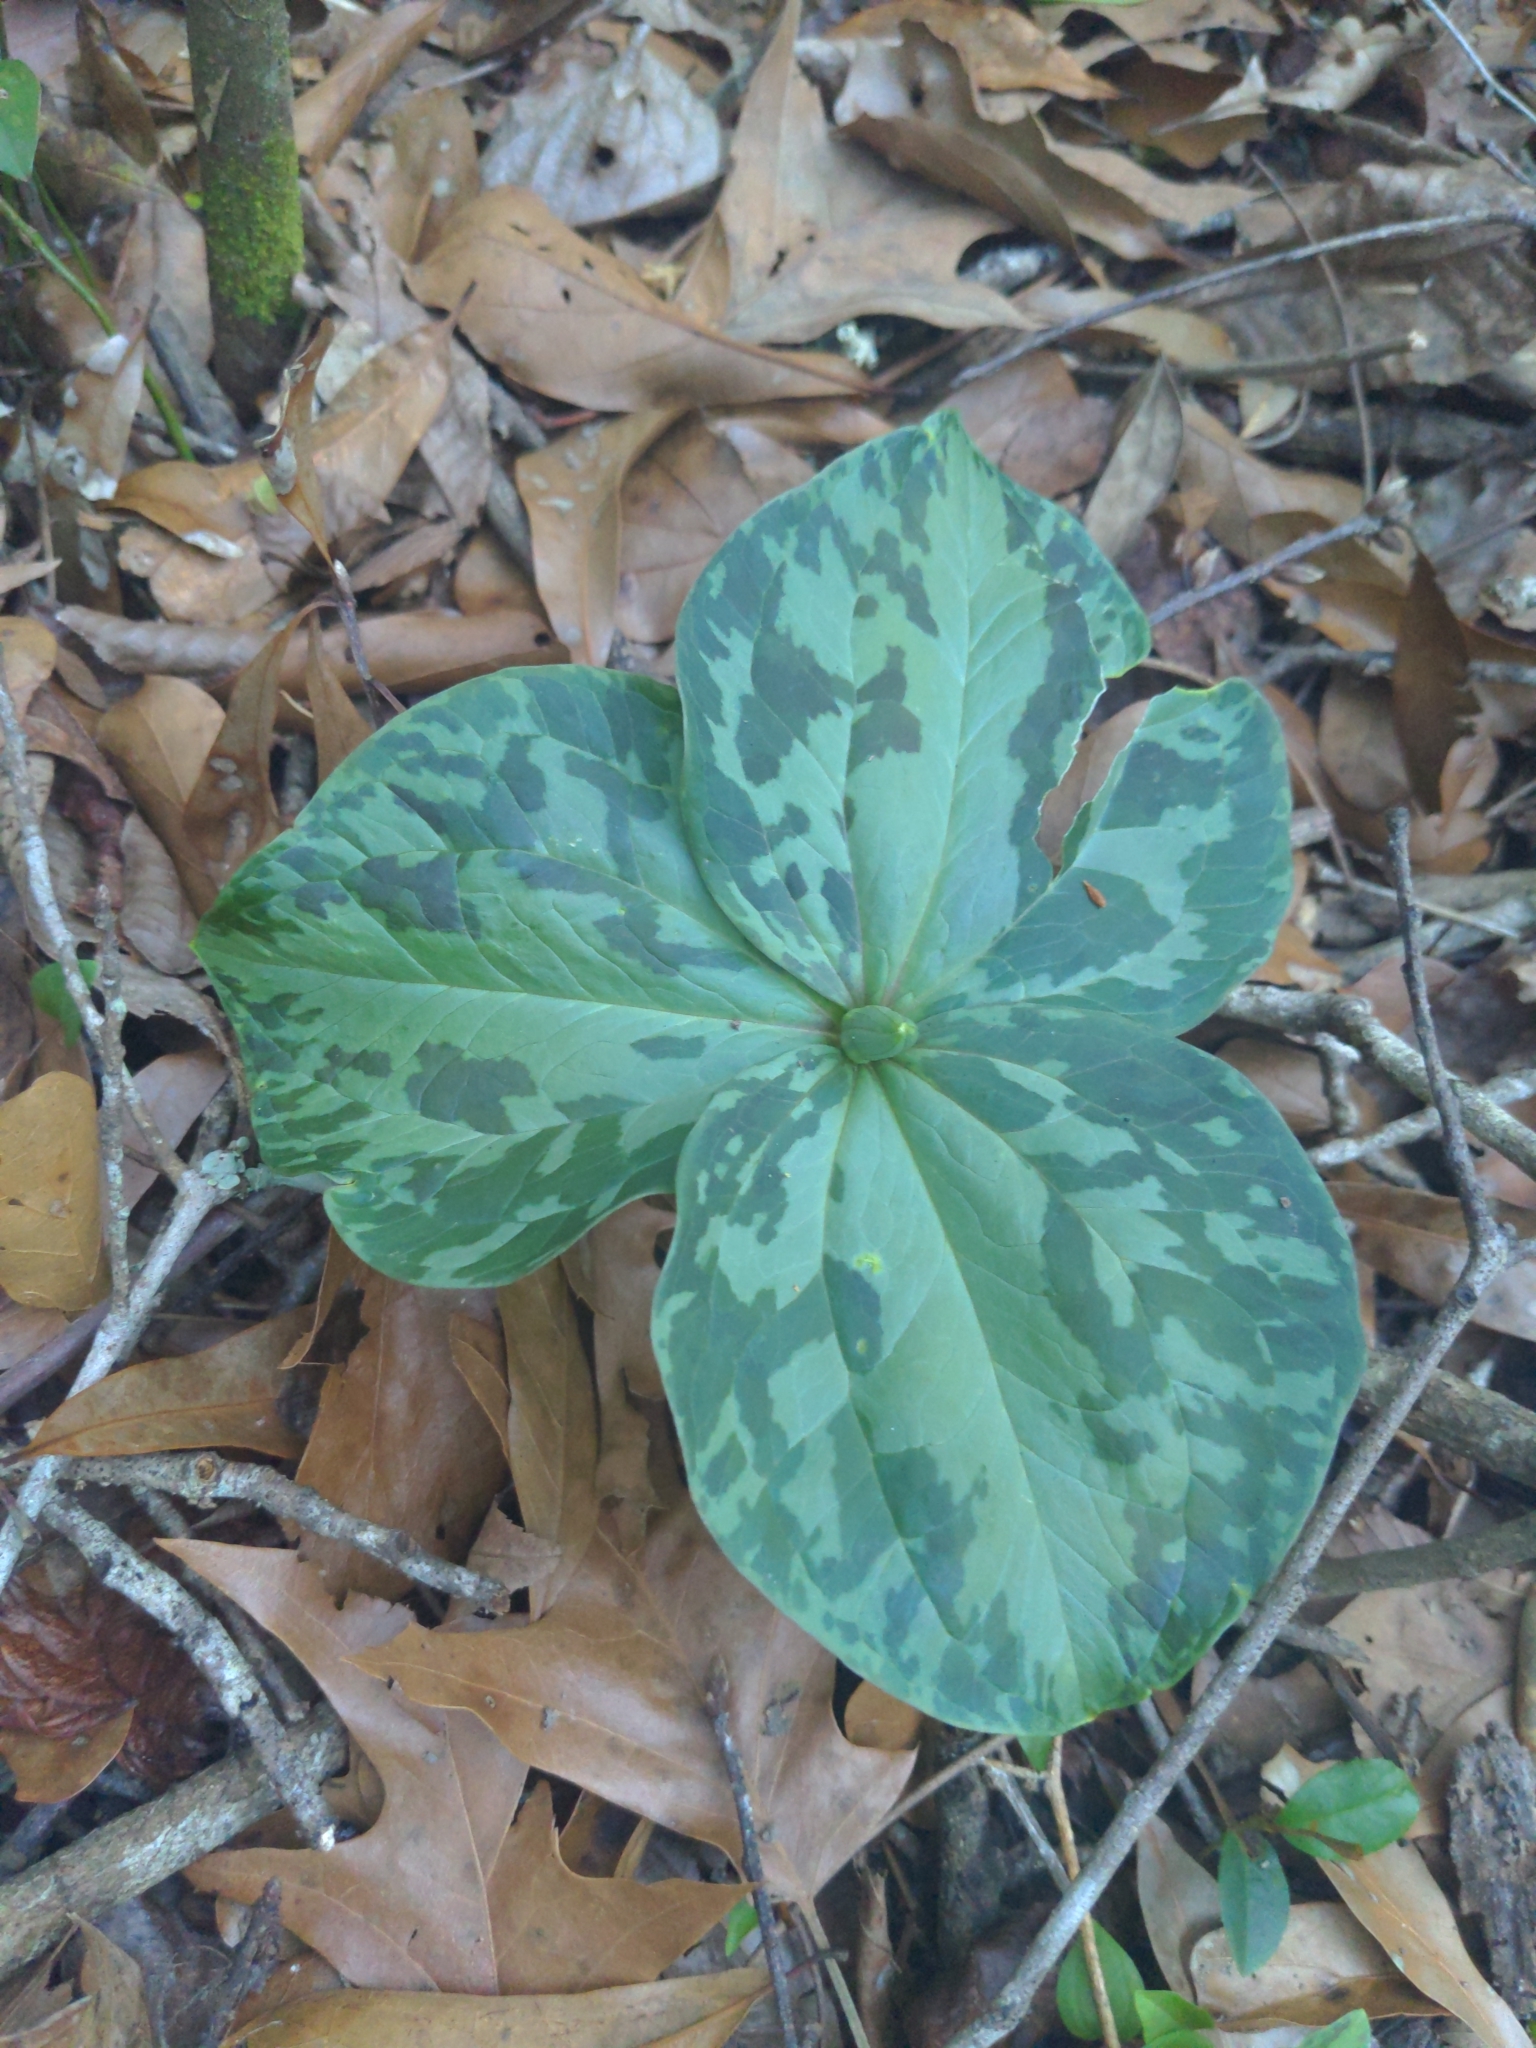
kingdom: Plantae
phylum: Tracheophyta
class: Liliopsida
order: Liliales
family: Melanthiaceae
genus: Trillium
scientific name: Trillium foetidissimum
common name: Mississippi river trillium
